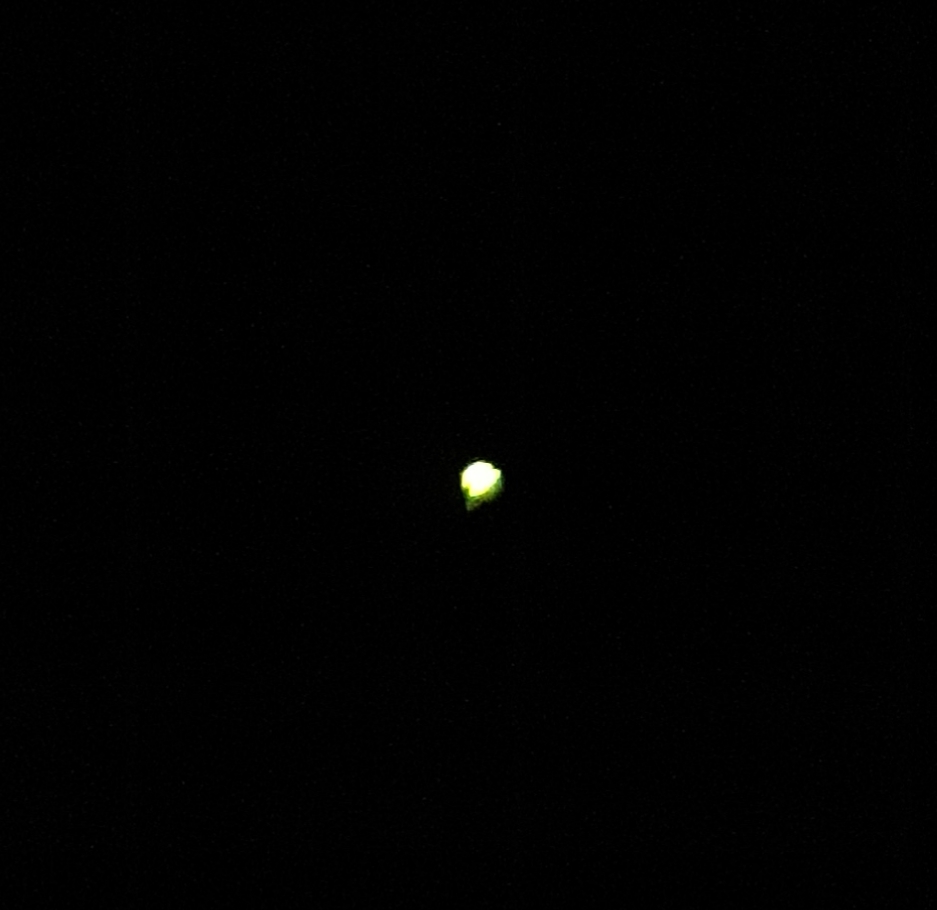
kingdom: Animalia
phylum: Arthropoda
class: Insecta
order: Coleoptera
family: Lampyridae
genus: Lamprohiza
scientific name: Lamprohiza mulsantii
